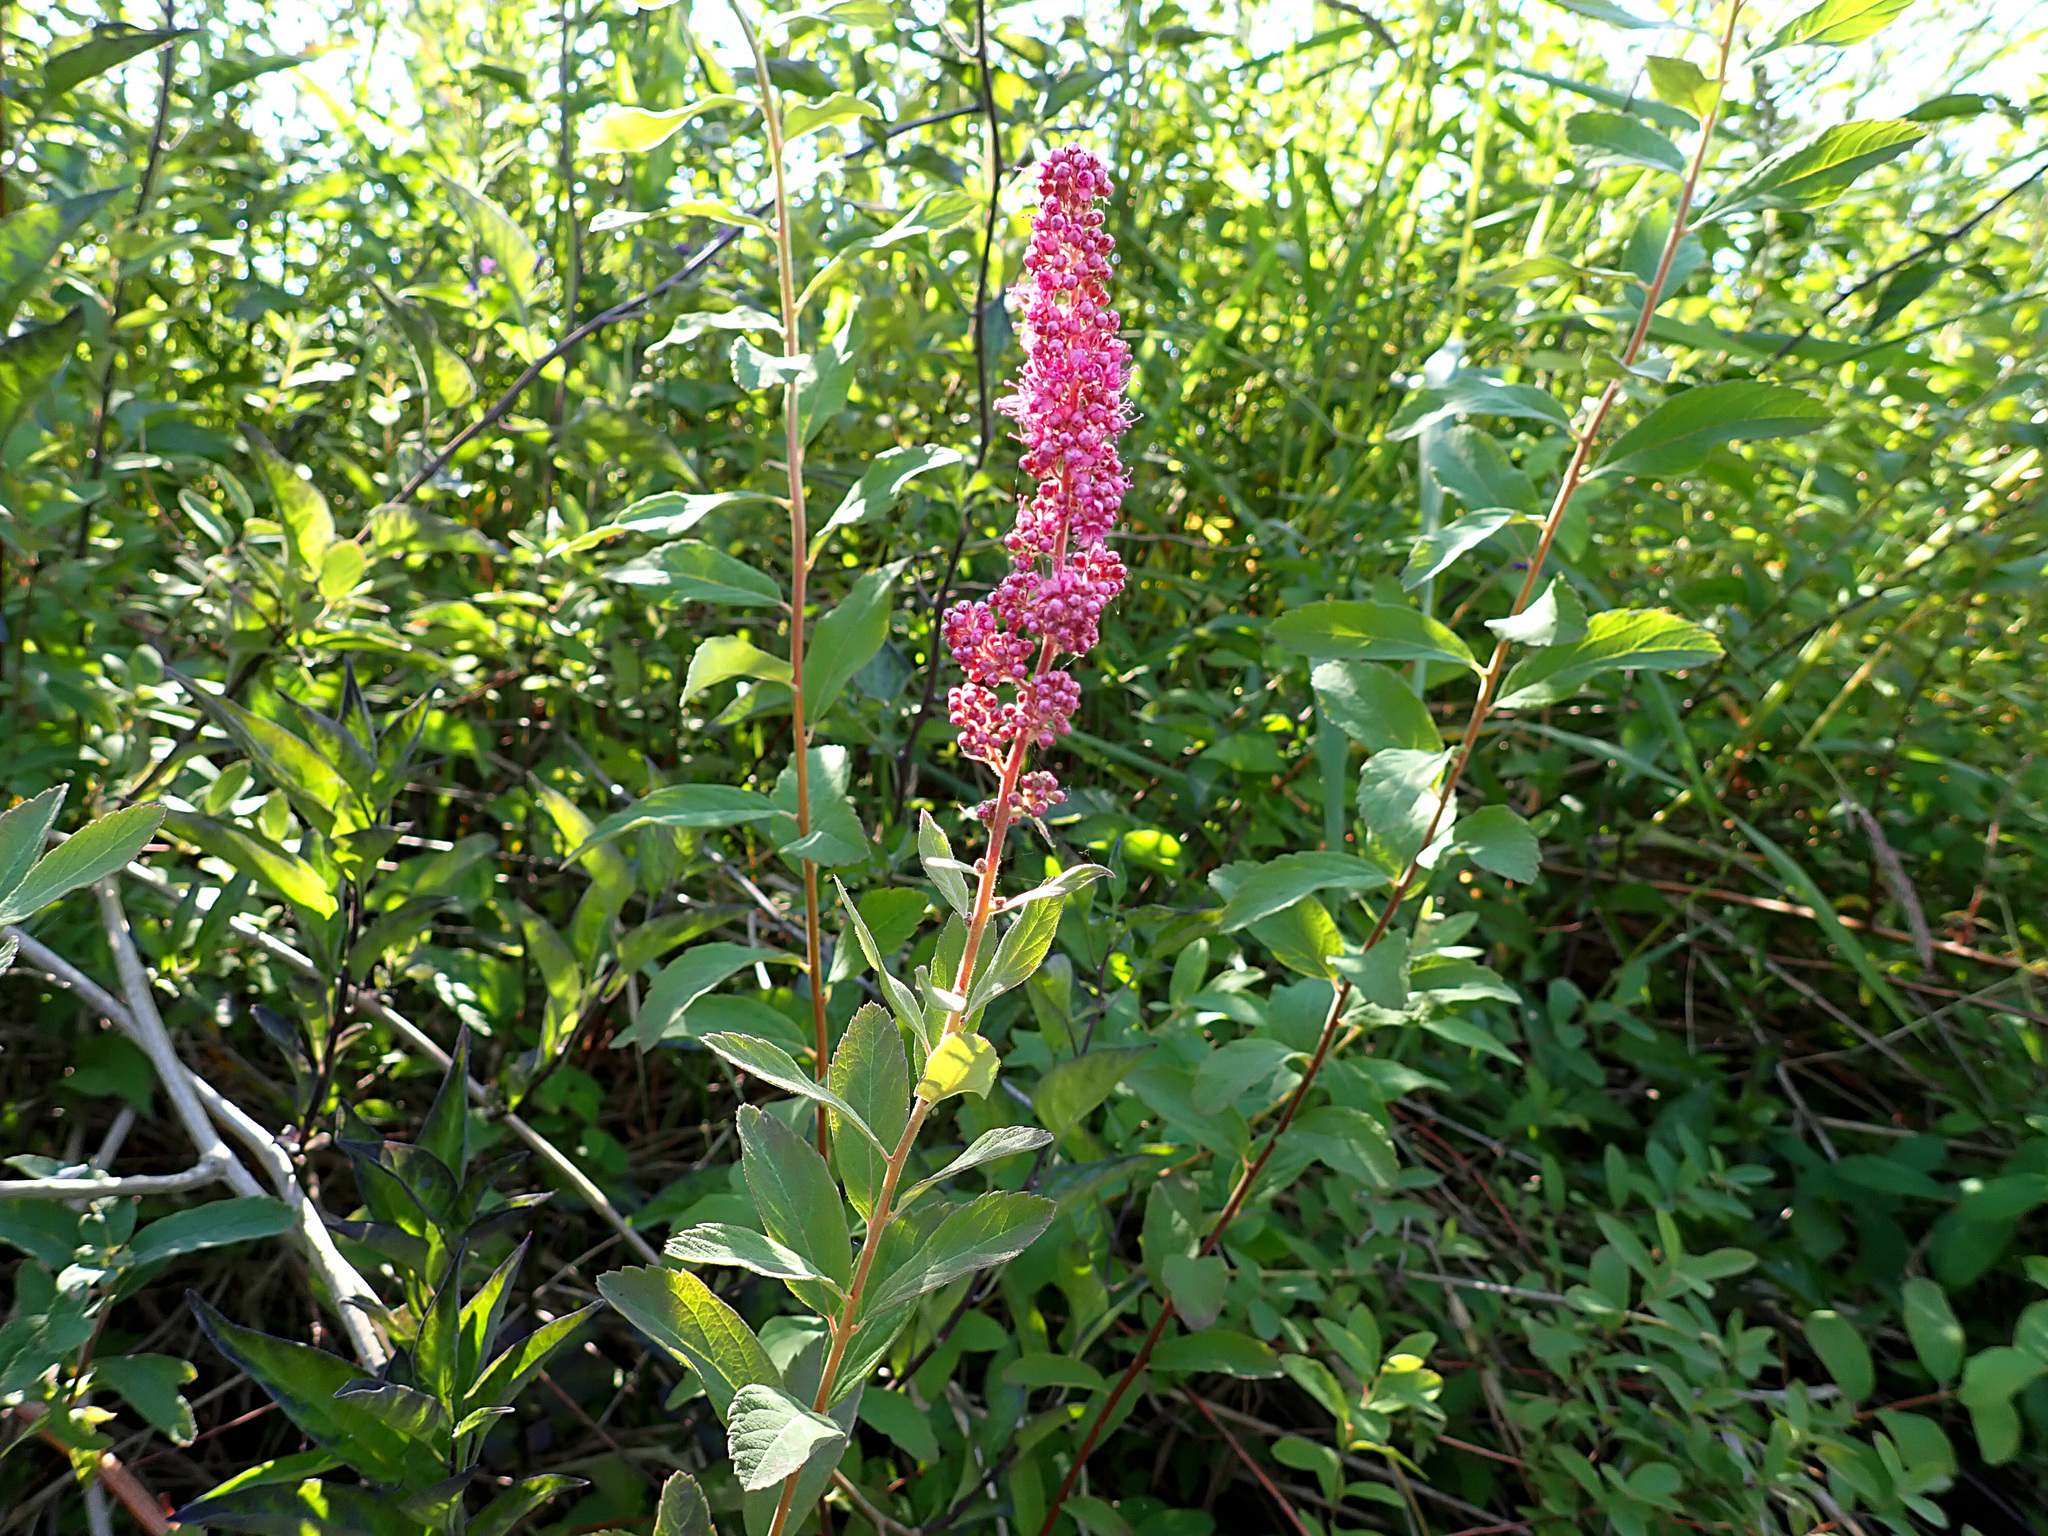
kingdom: Plantae
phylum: Tracheophyta
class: Magnoliopsida
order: Rosales
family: Rosaceae
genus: Spiraea
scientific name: Spiraea douglasii
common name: Steeplebush
